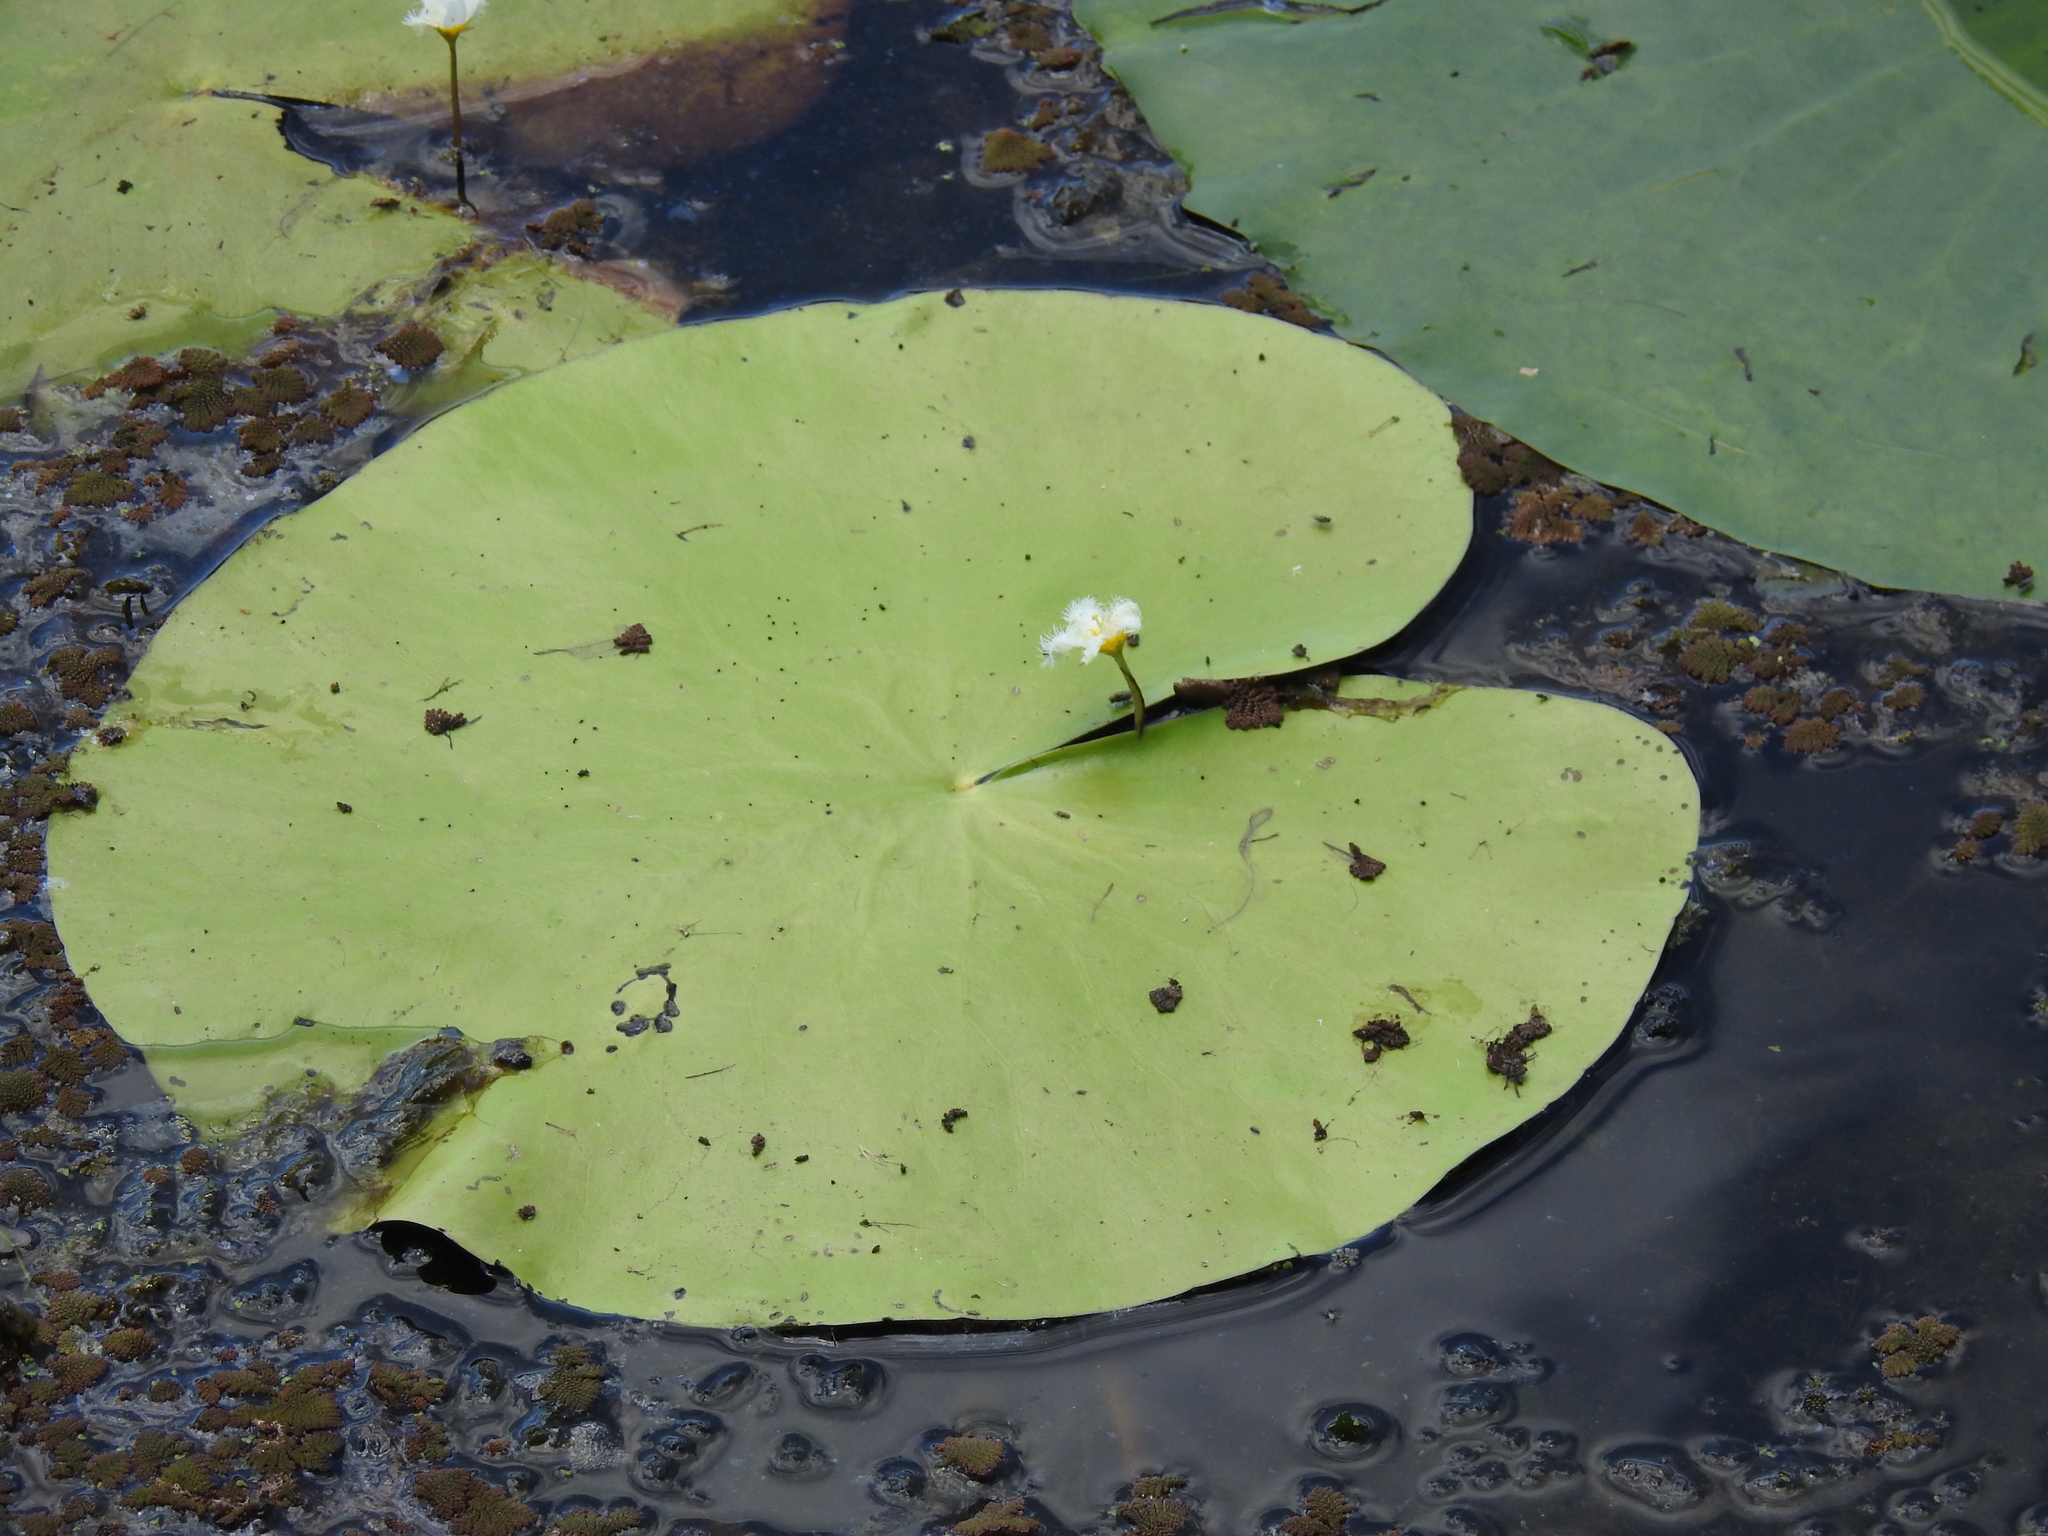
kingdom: Plantae
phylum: Tracheophyta
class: Magnoliopsida
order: Asterales
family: Menyanthaceae
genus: Nymphoides
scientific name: Nymphoides indica
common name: Water-snowflake
